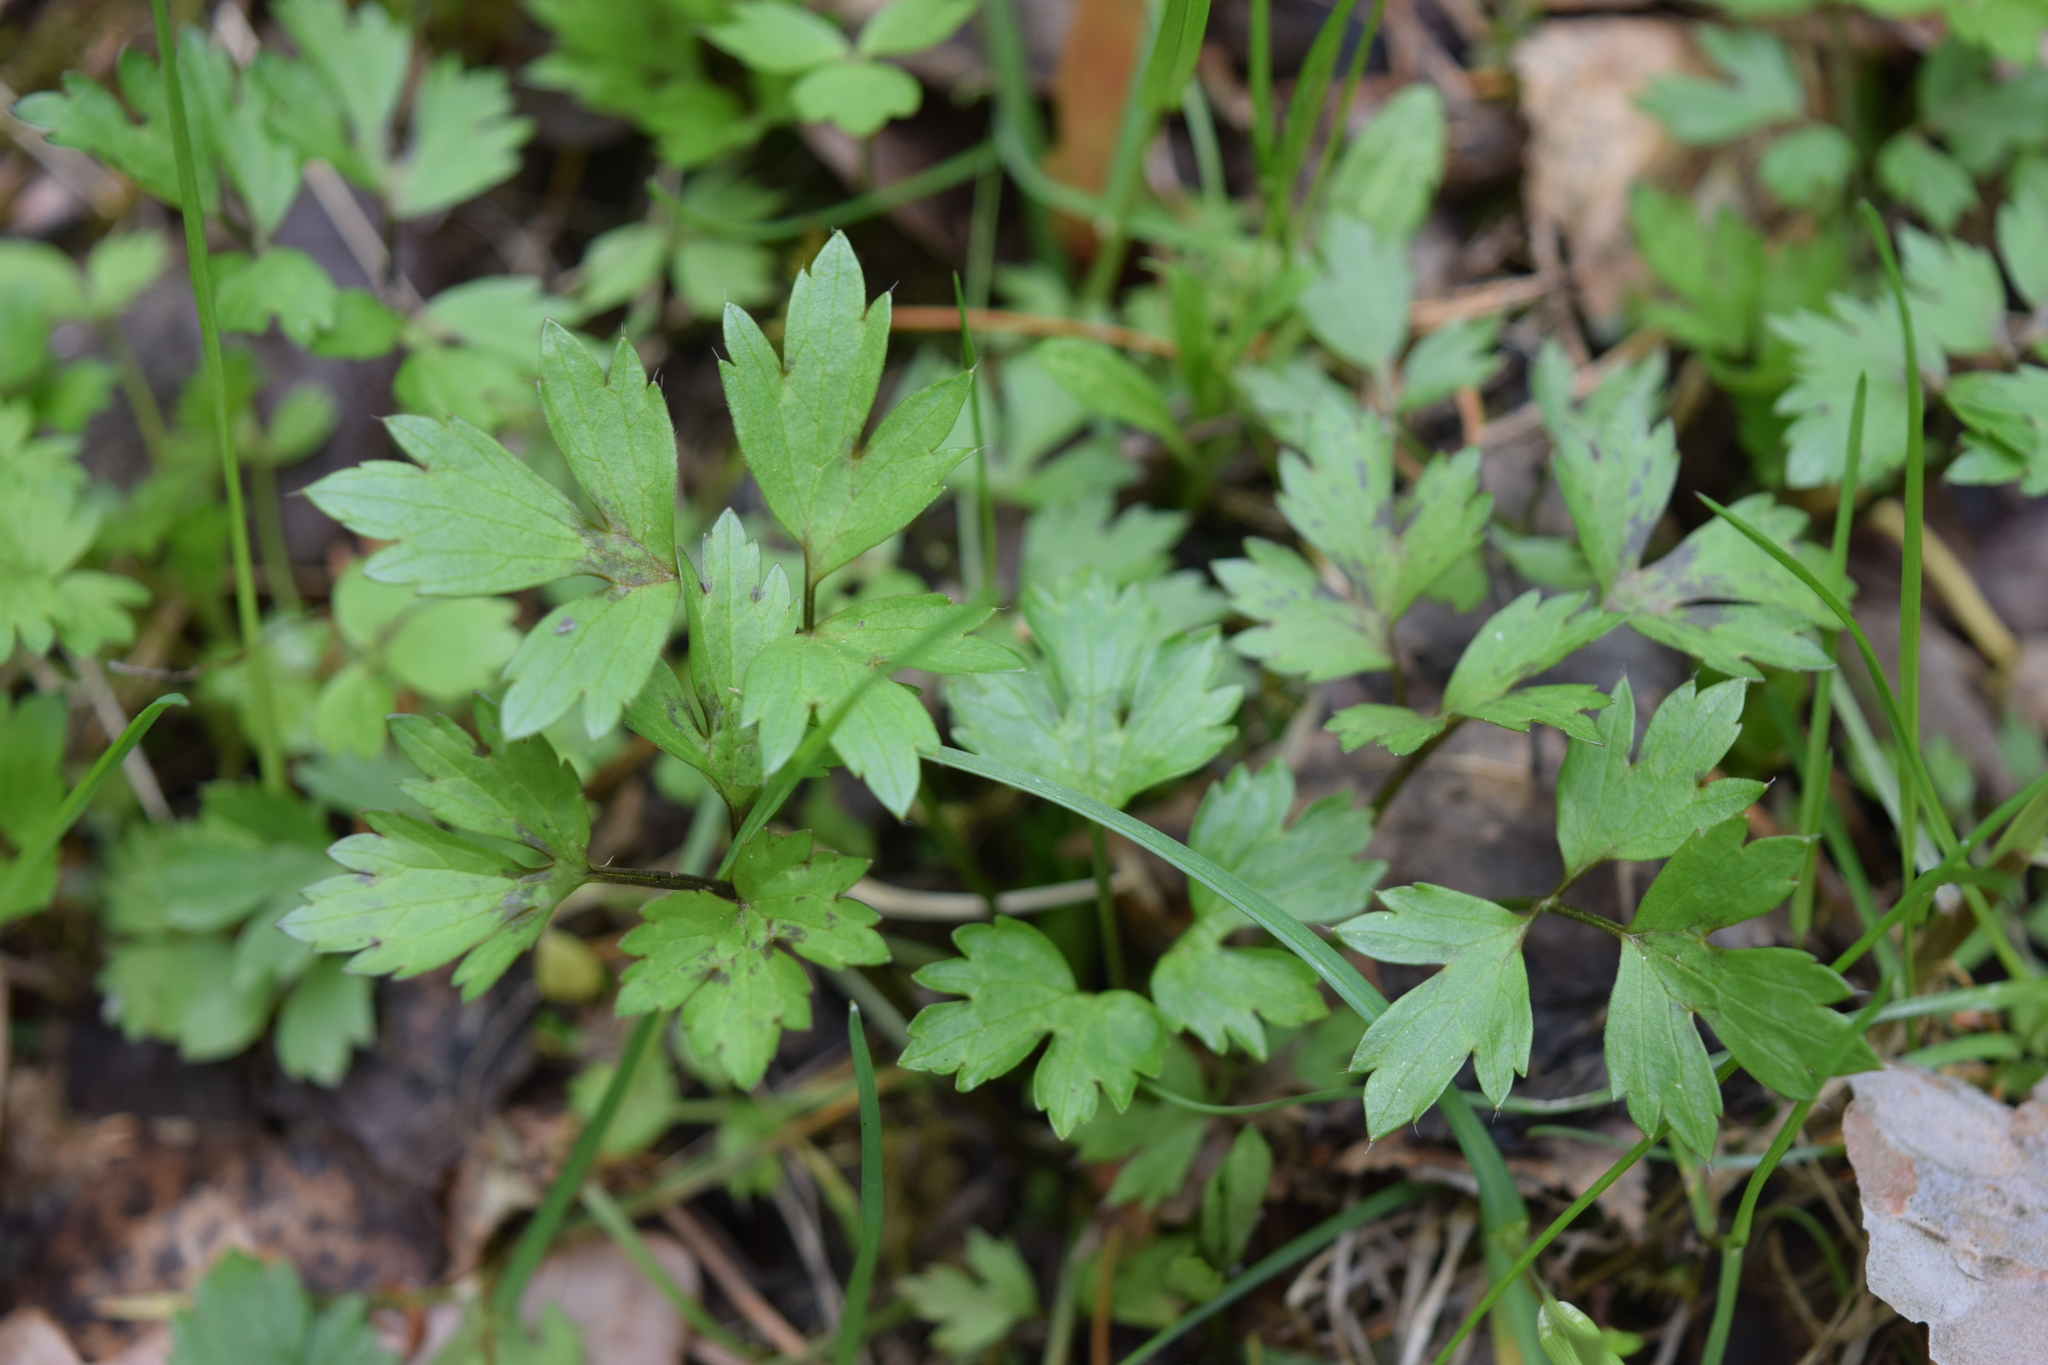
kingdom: Plantae
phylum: Tracheophyta
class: Magnoliopsida
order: Ranunculales
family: Ranunculaceae
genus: Ranunculus
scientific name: Ranunculus repens
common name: Creeping buttercup
